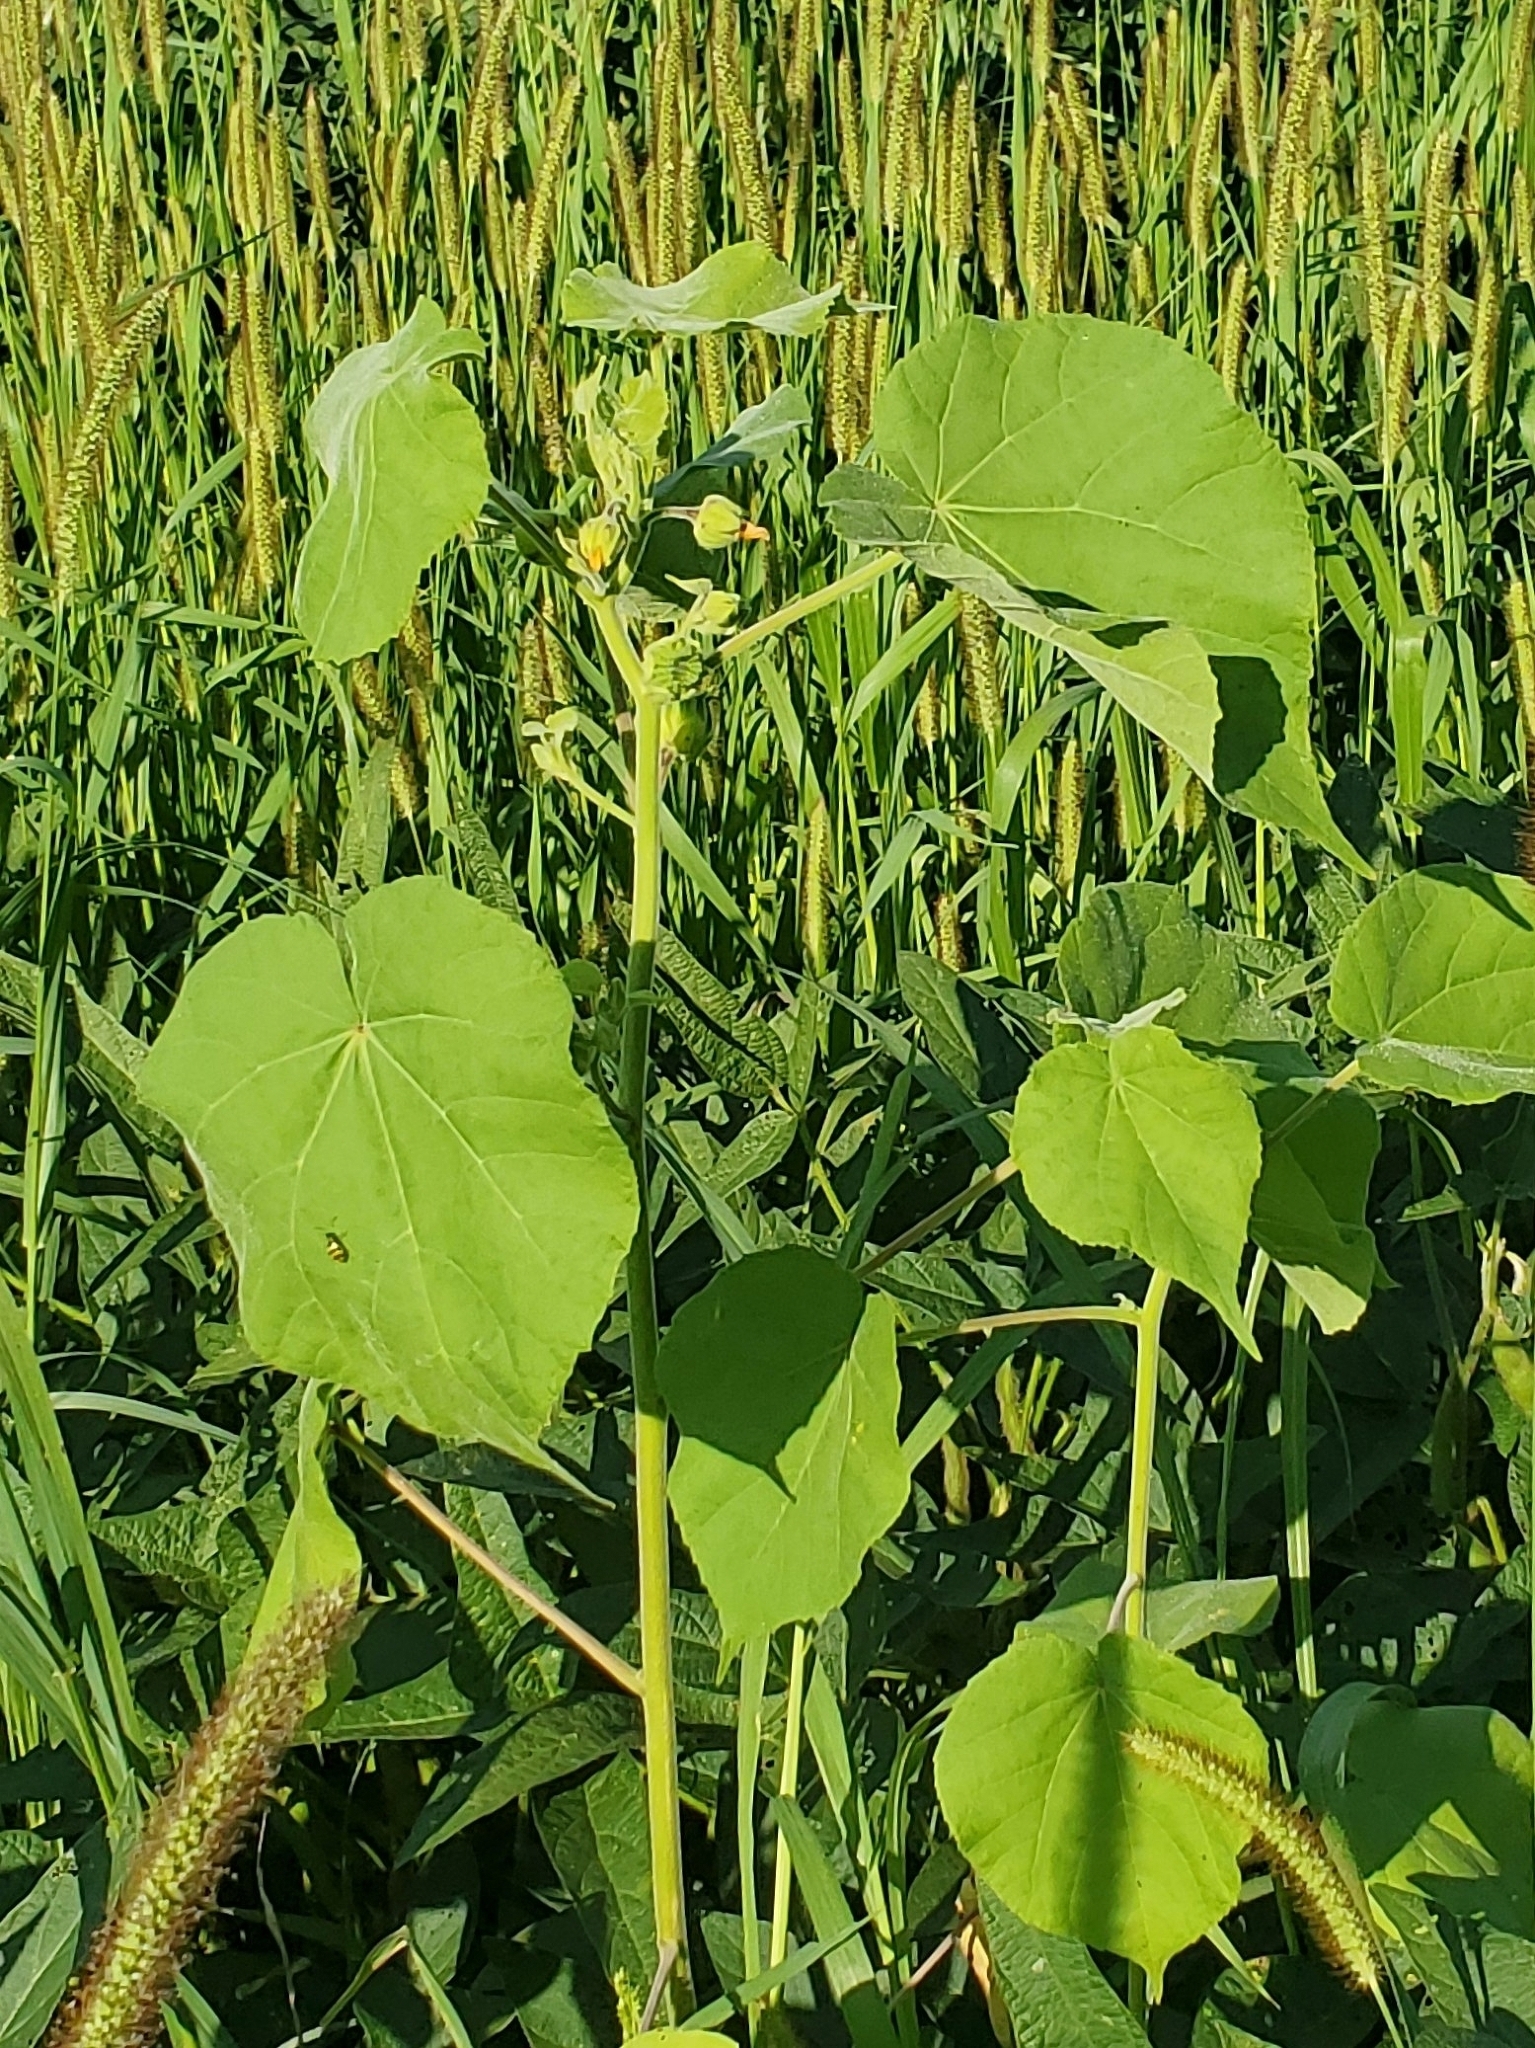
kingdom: Plantae
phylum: Tracheophyta
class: Magnoliopsida
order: Malvales
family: Malvaceae
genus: Abutilon
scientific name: Abutilon theophrasti
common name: Velvetleaf
